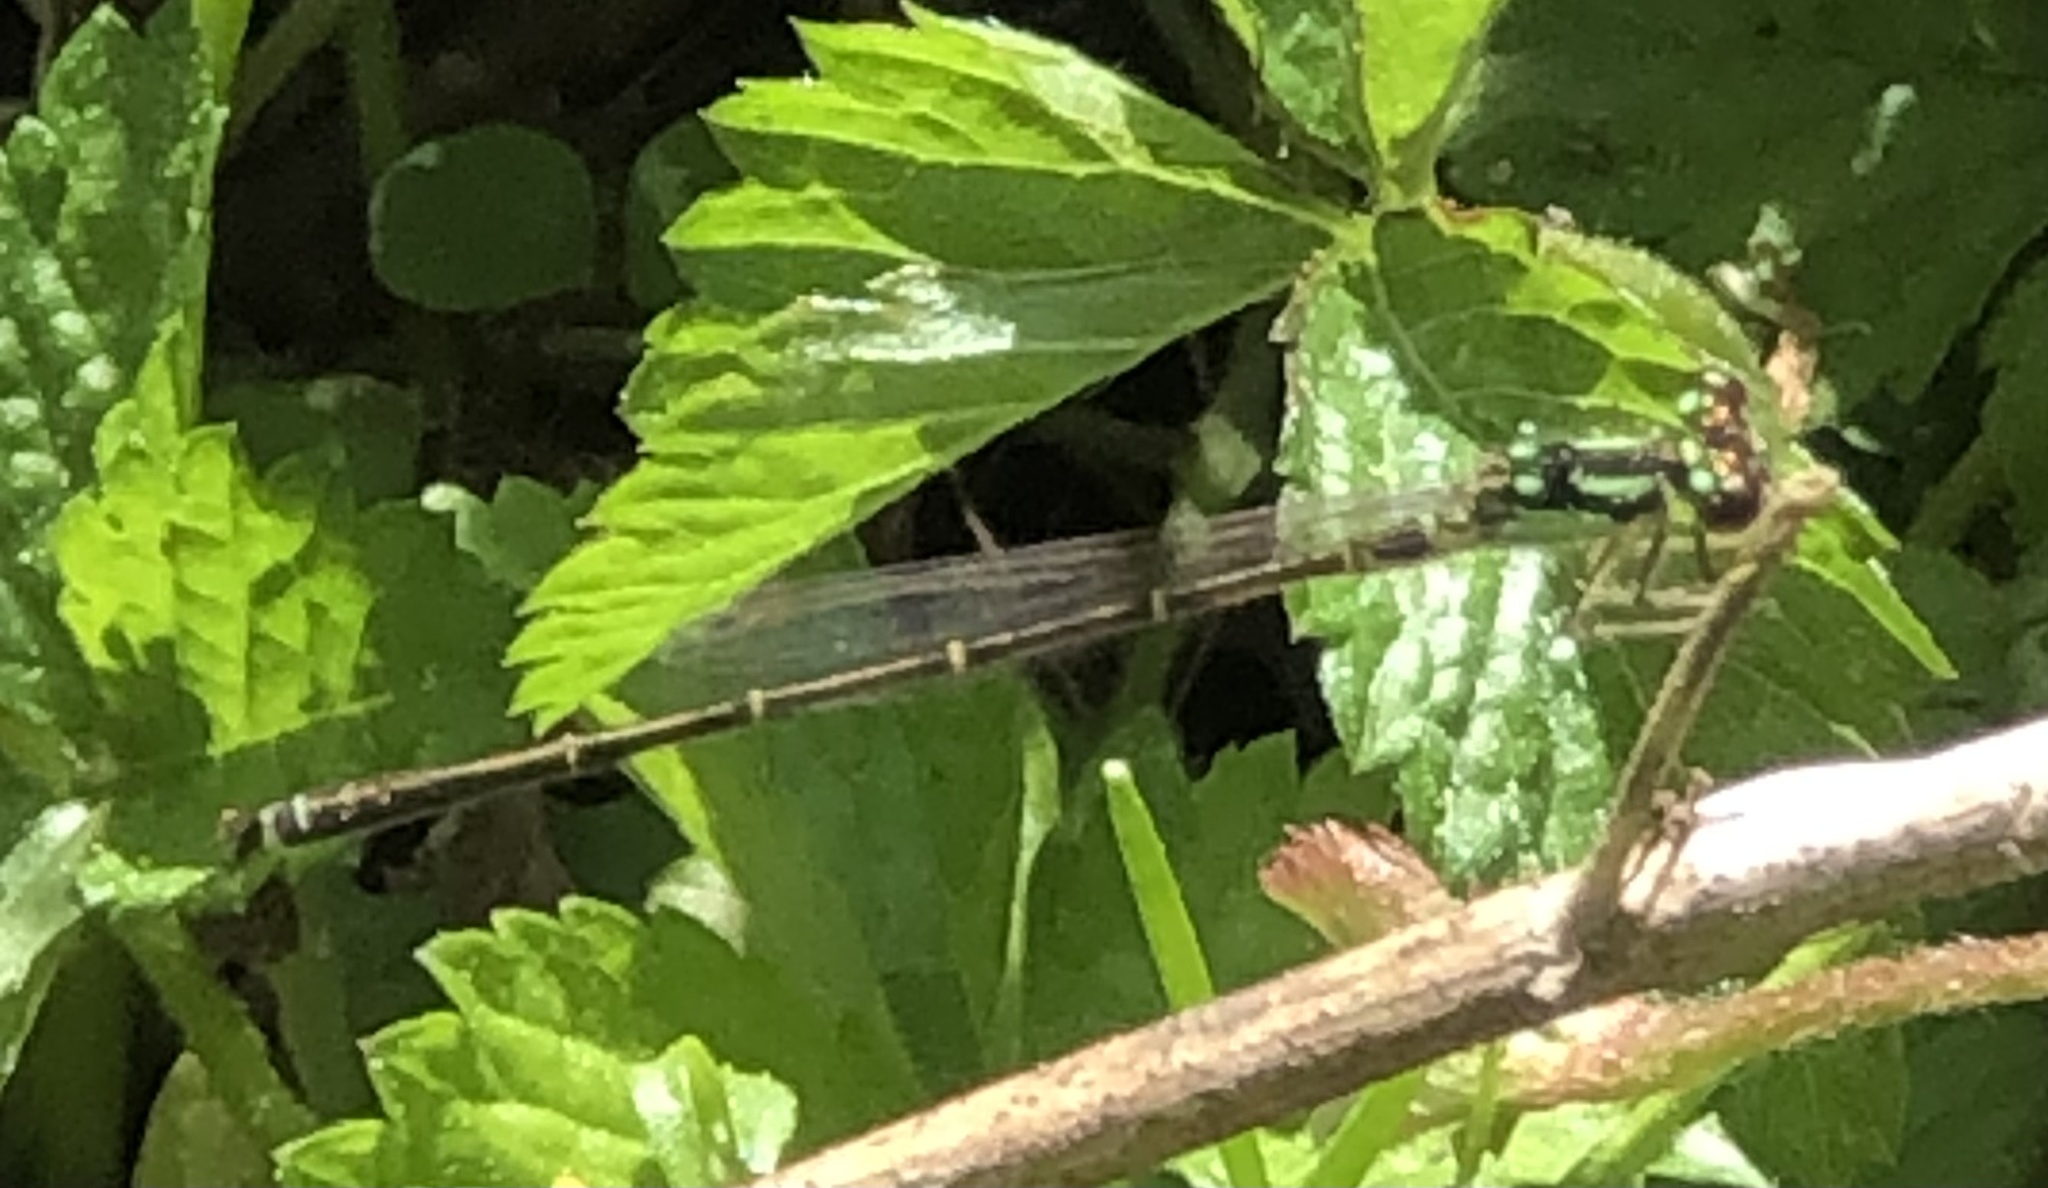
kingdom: Animalia
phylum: Arthropoda
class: Insecta
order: Odonata
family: Coenagrionidae
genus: Ischnura
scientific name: Ischnura posita
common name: Fragile forktail
